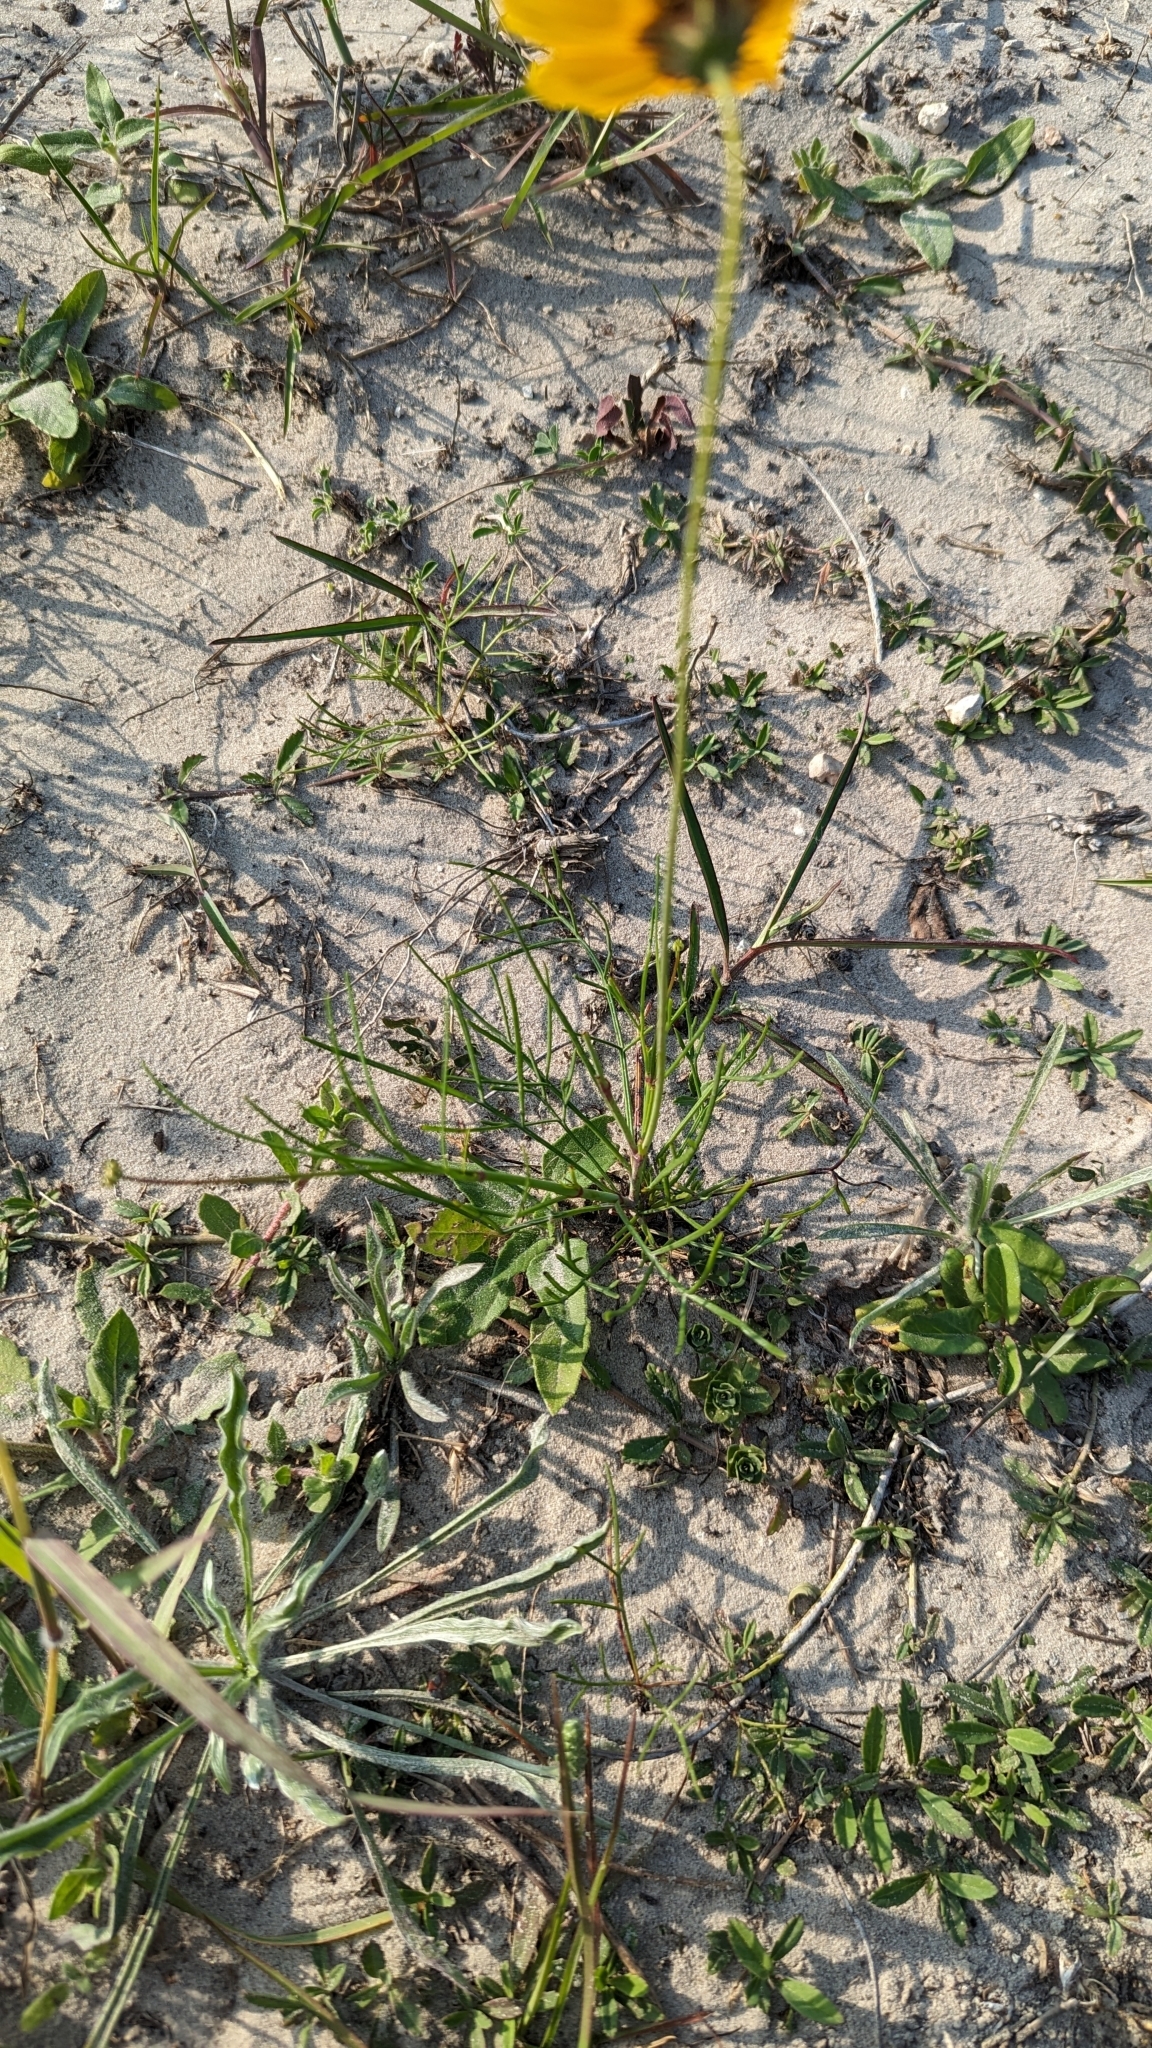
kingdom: Plantae
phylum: Tracheophyta
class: Magnoliopsida
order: Asterales
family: Asteraceae
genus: Coreopsis
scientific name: Coreopsis tinctoria
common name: Garden tickseed
